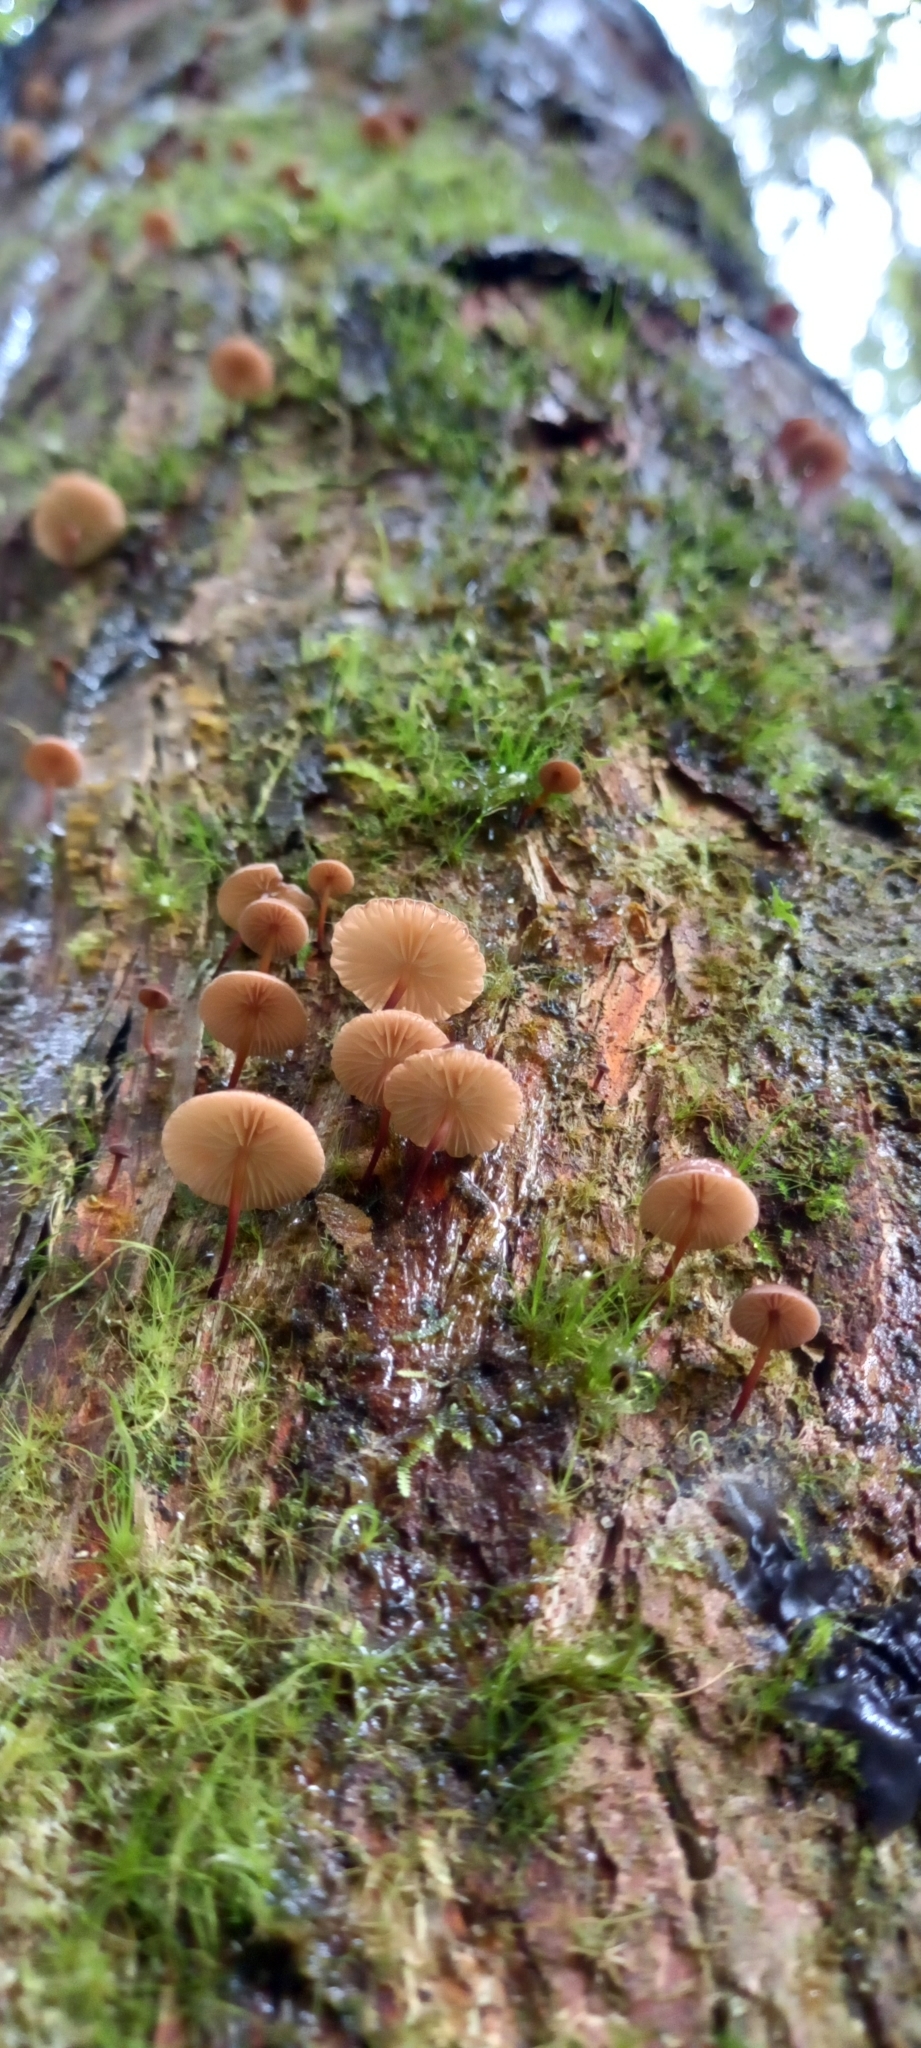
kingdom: Fungi
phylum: Basidiomycota
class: Agaricomycetes
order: Agaricales
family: Omphalotaceae
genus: Mycetinis
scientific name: Mycetinis curraniae
